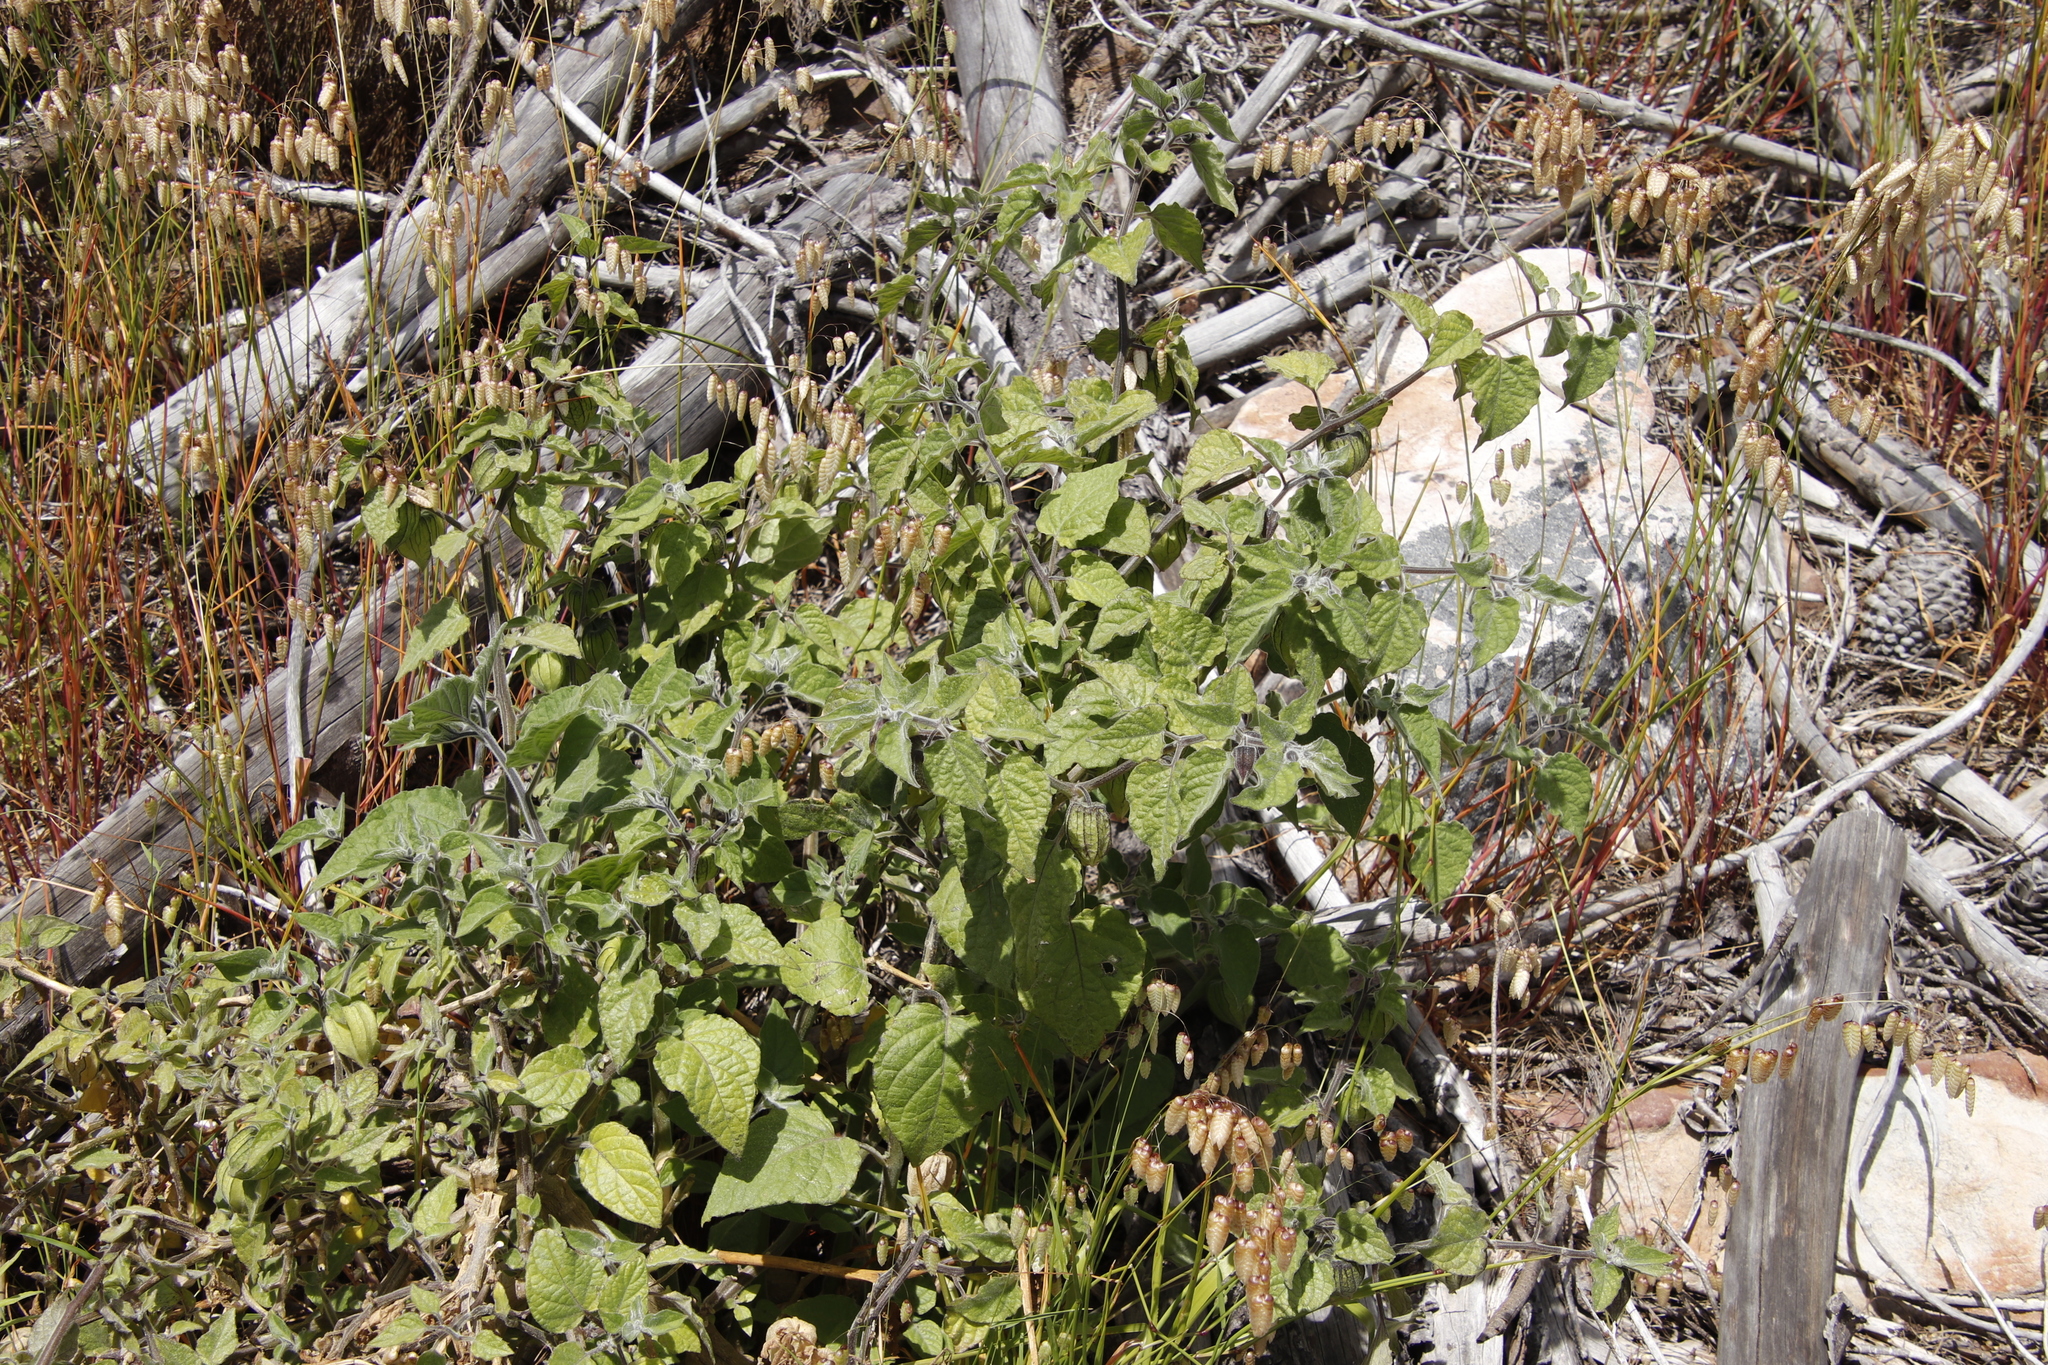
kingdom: Plantae
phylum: Tracheophyta
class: Magnoliopsida
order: Solanales
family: Solanaceae
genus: Physalis
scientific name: Physalis peruviana
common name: Cape-gooseberry
